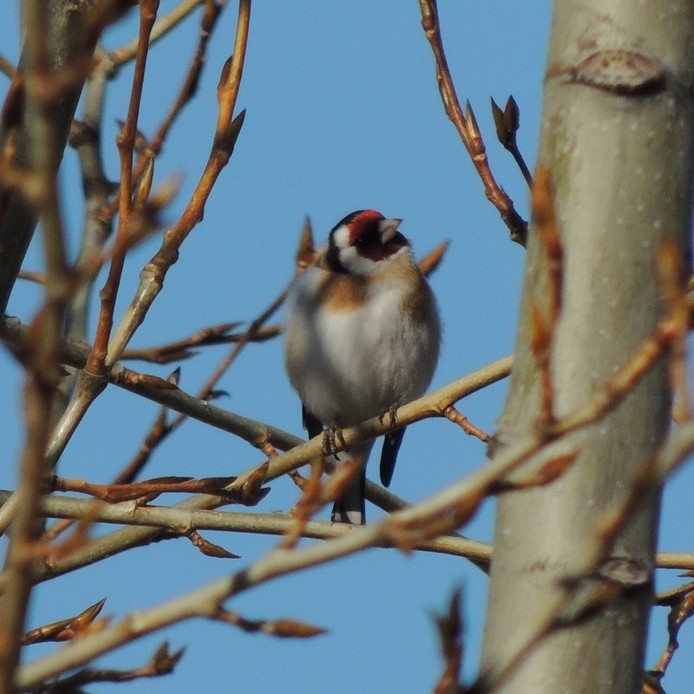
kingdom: Animalia
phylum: Chordata
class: Aves
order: Passeriformes
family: Fringillidae
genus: Carduelis
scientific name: Carduelis carduelis
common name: European goldfinch
